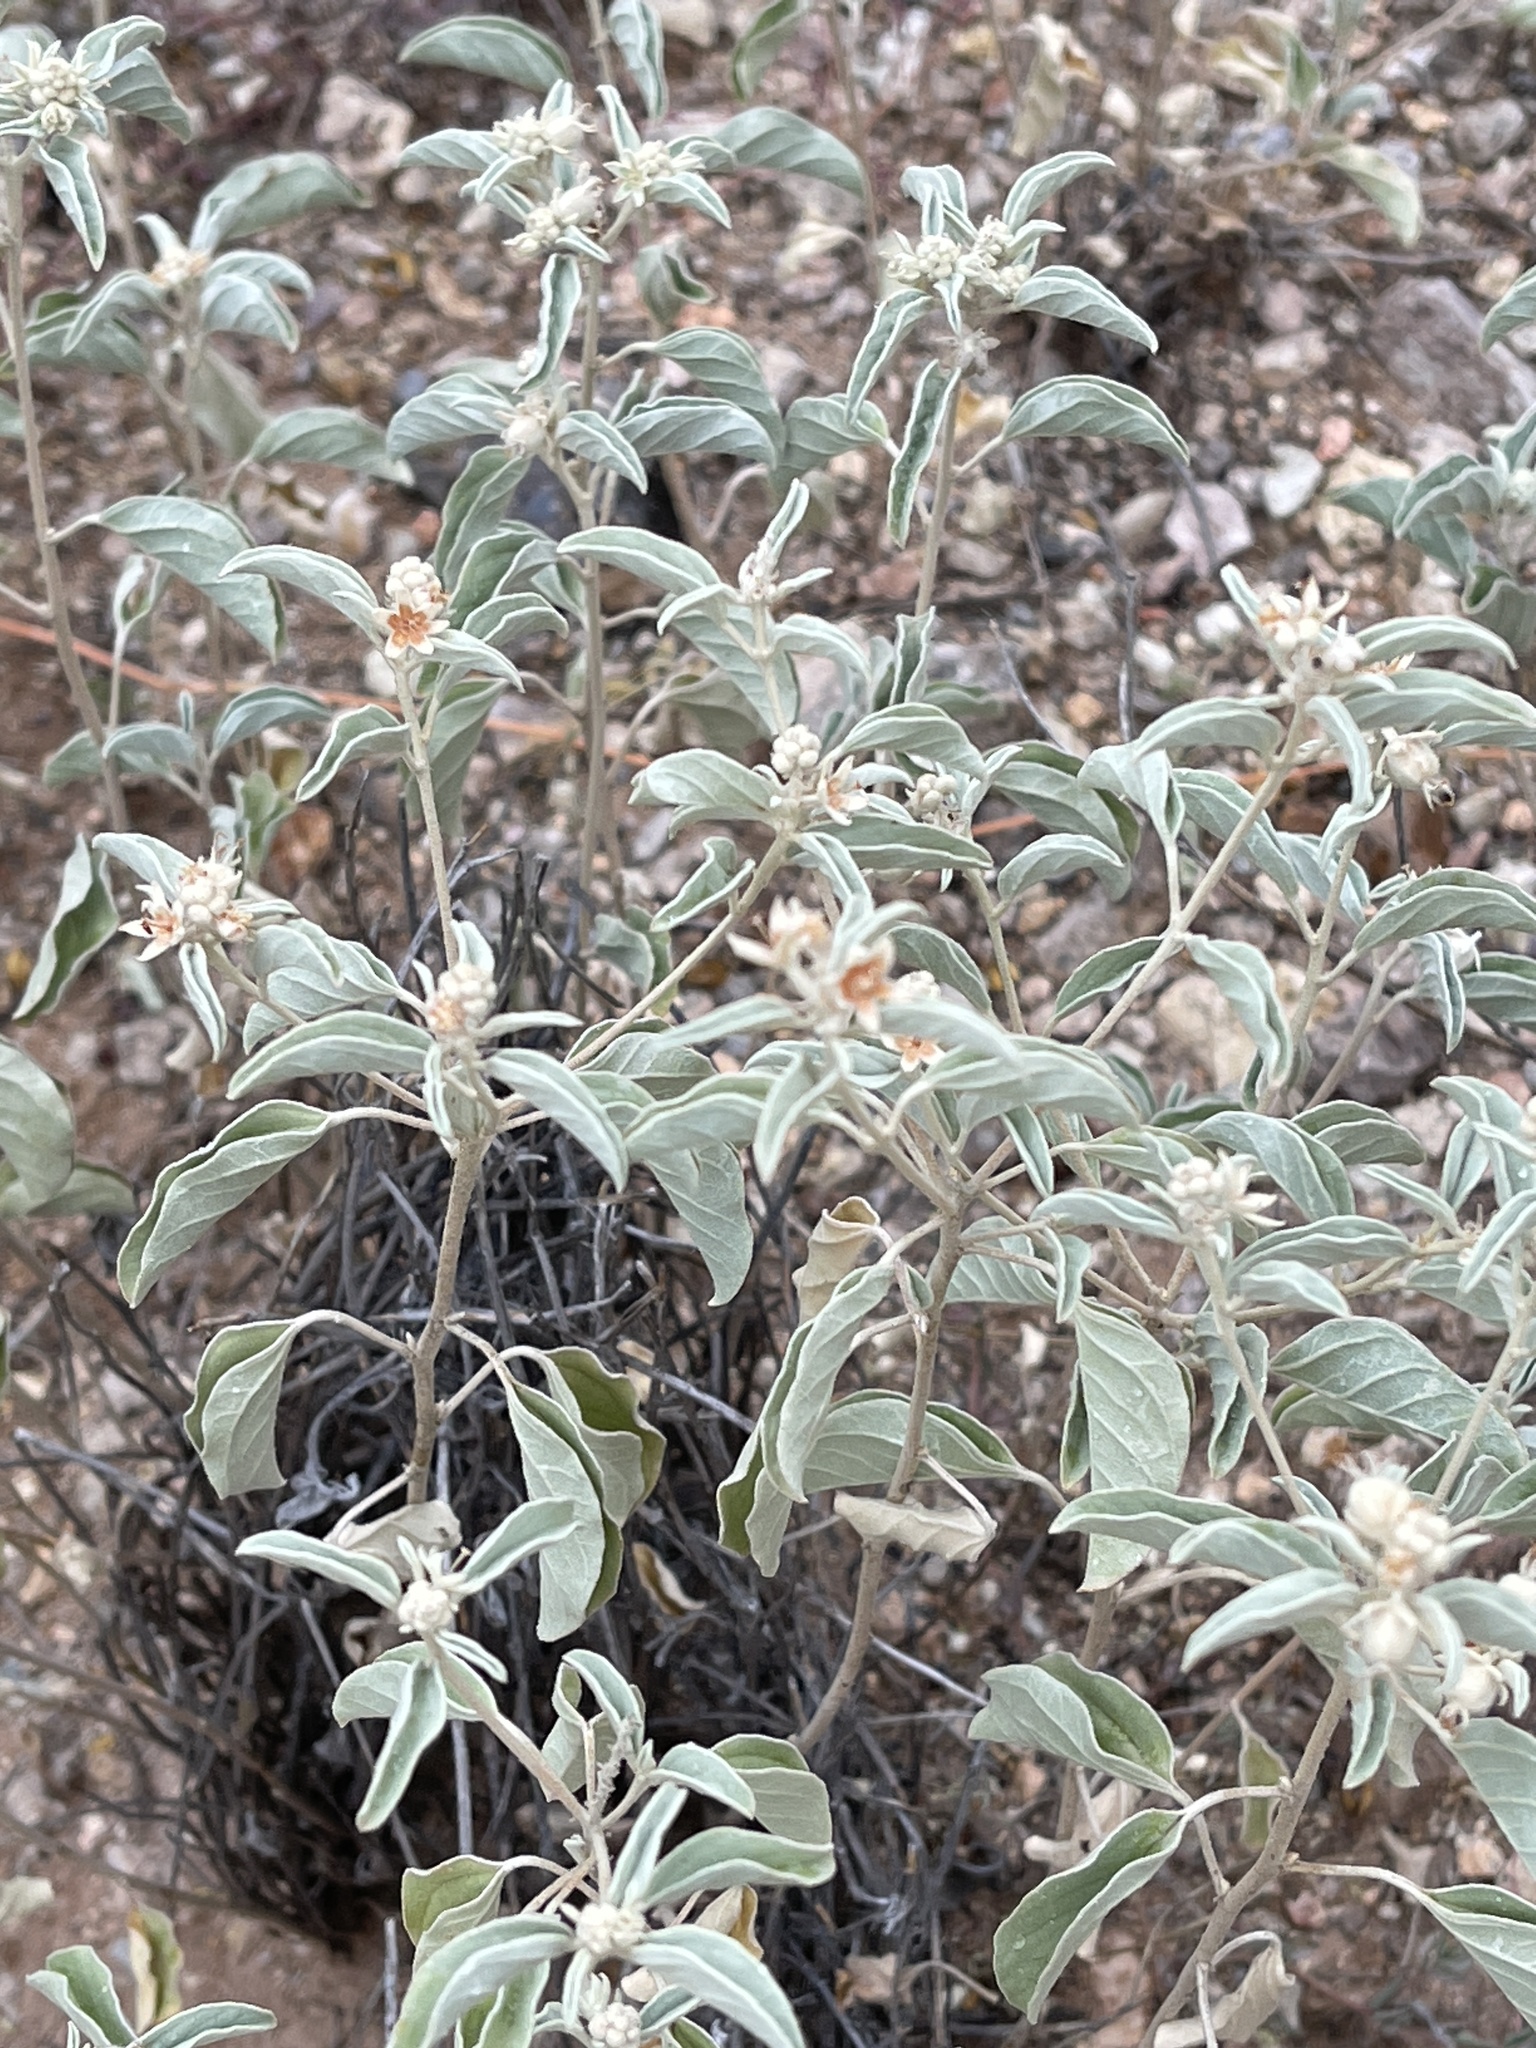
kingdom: Plantae
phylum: Tracheophyta
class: Magnoliopsida
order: Malpighiales
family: Euphorbiaceae
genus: Croton
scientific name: Croton pottsii
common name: Leatherweed
